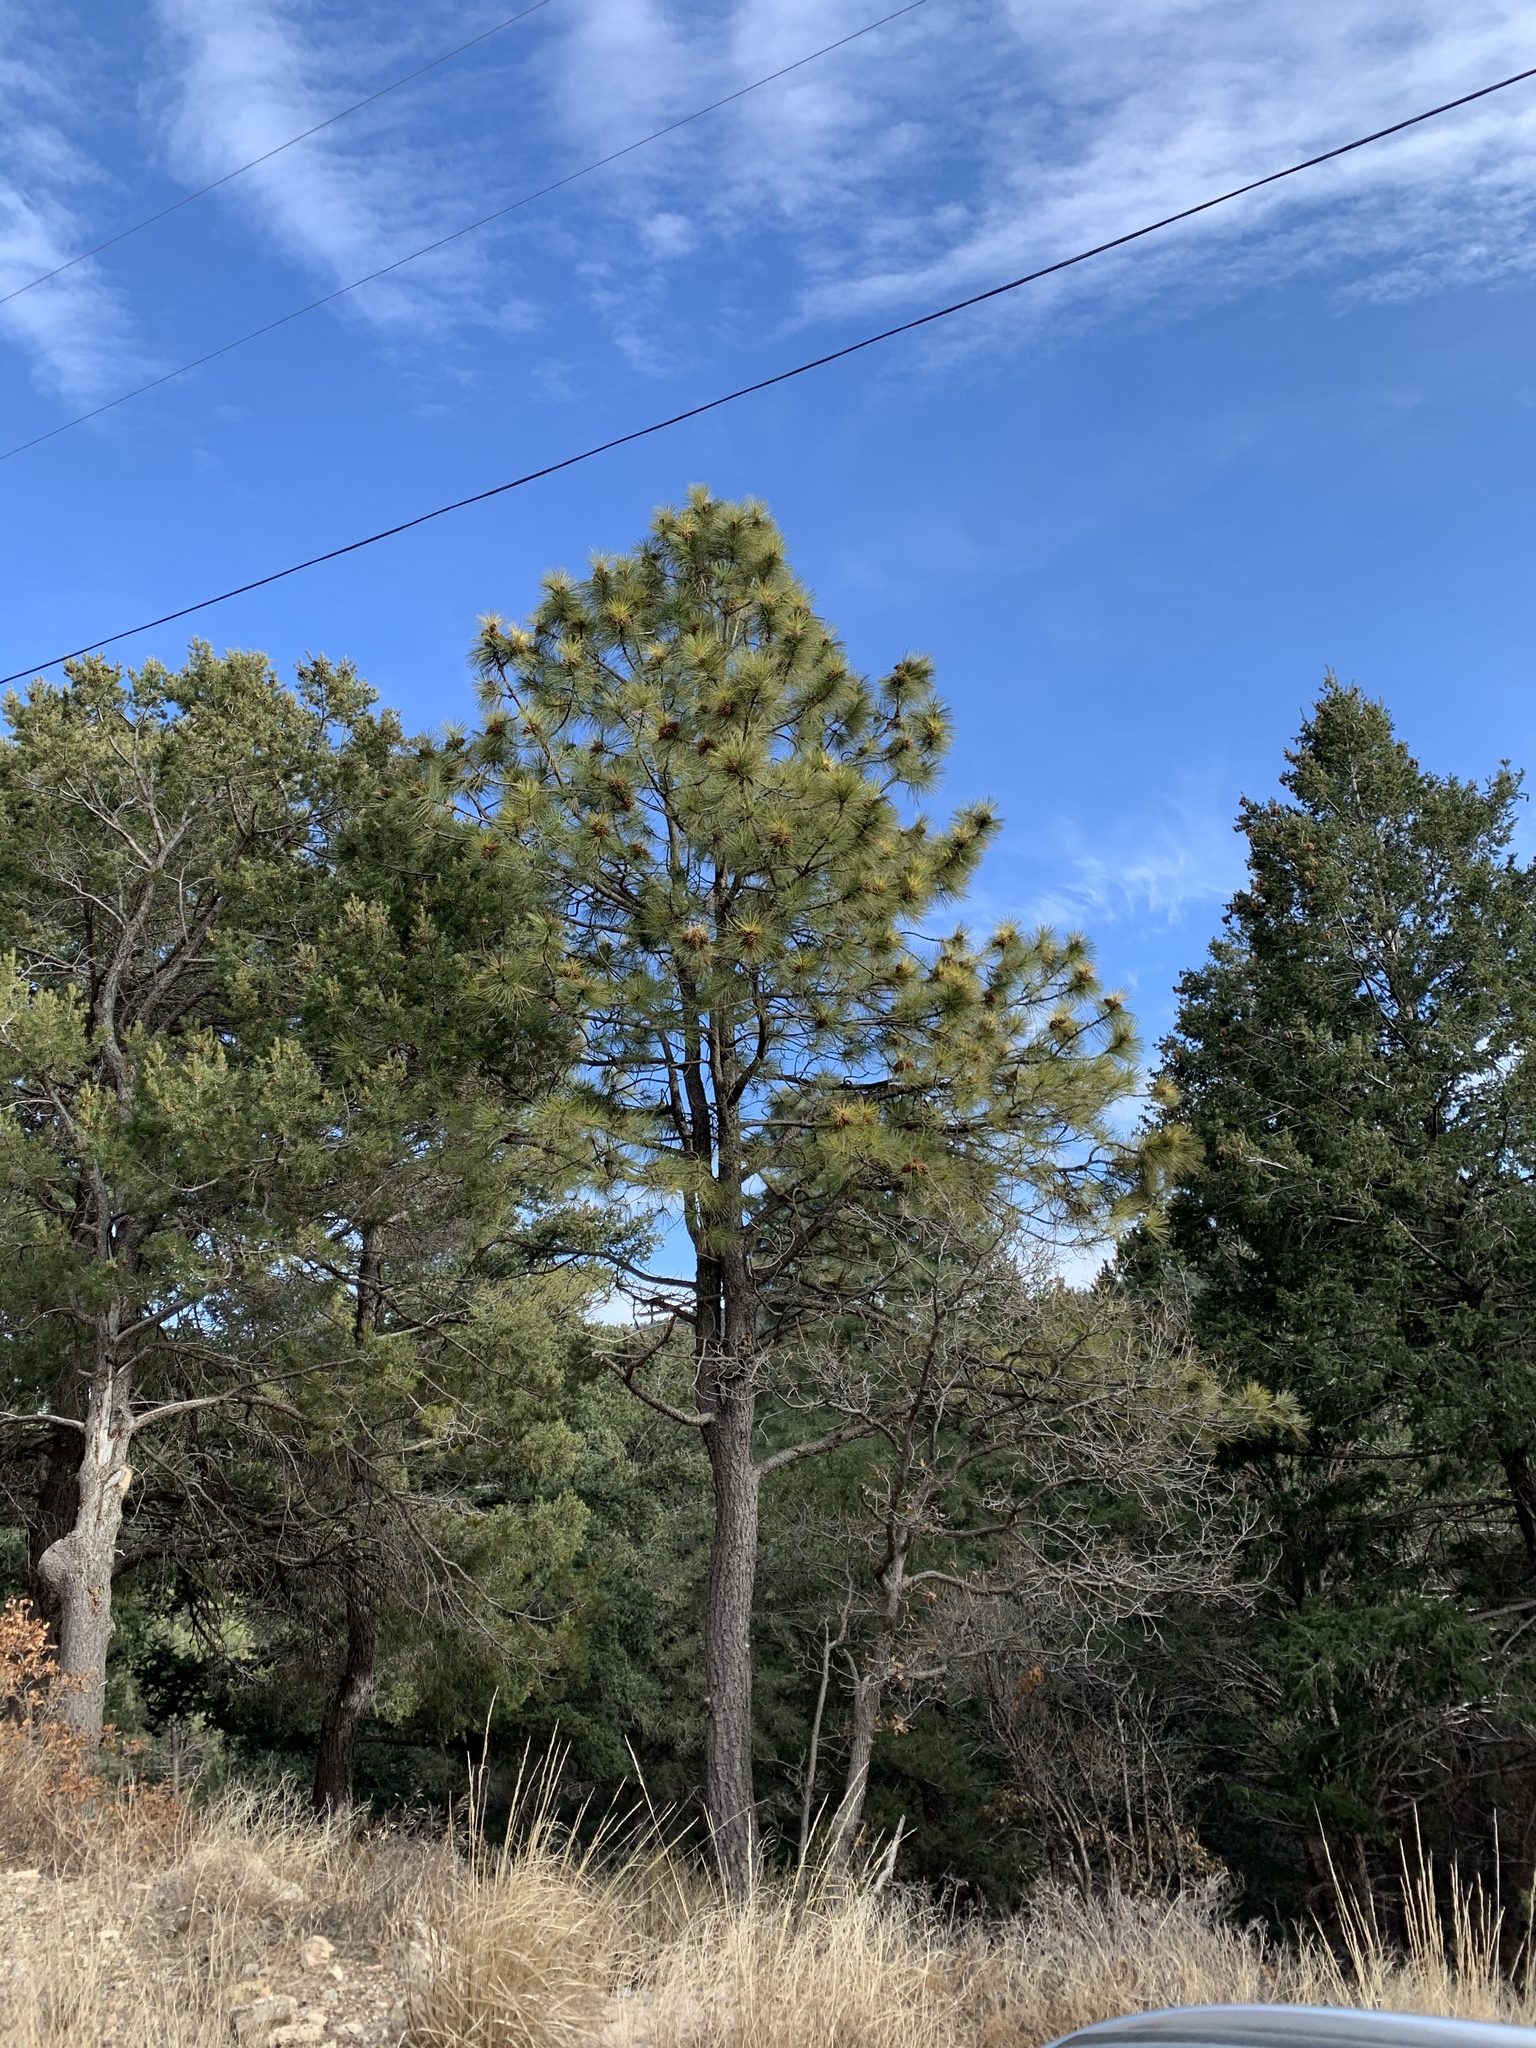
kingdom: Plantae
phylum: Tracheophyta
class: Pinopsida
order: Pinales
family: Pinaceae
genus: Pinus
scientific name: Pinus ponderosa
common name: Western yellow-pine
